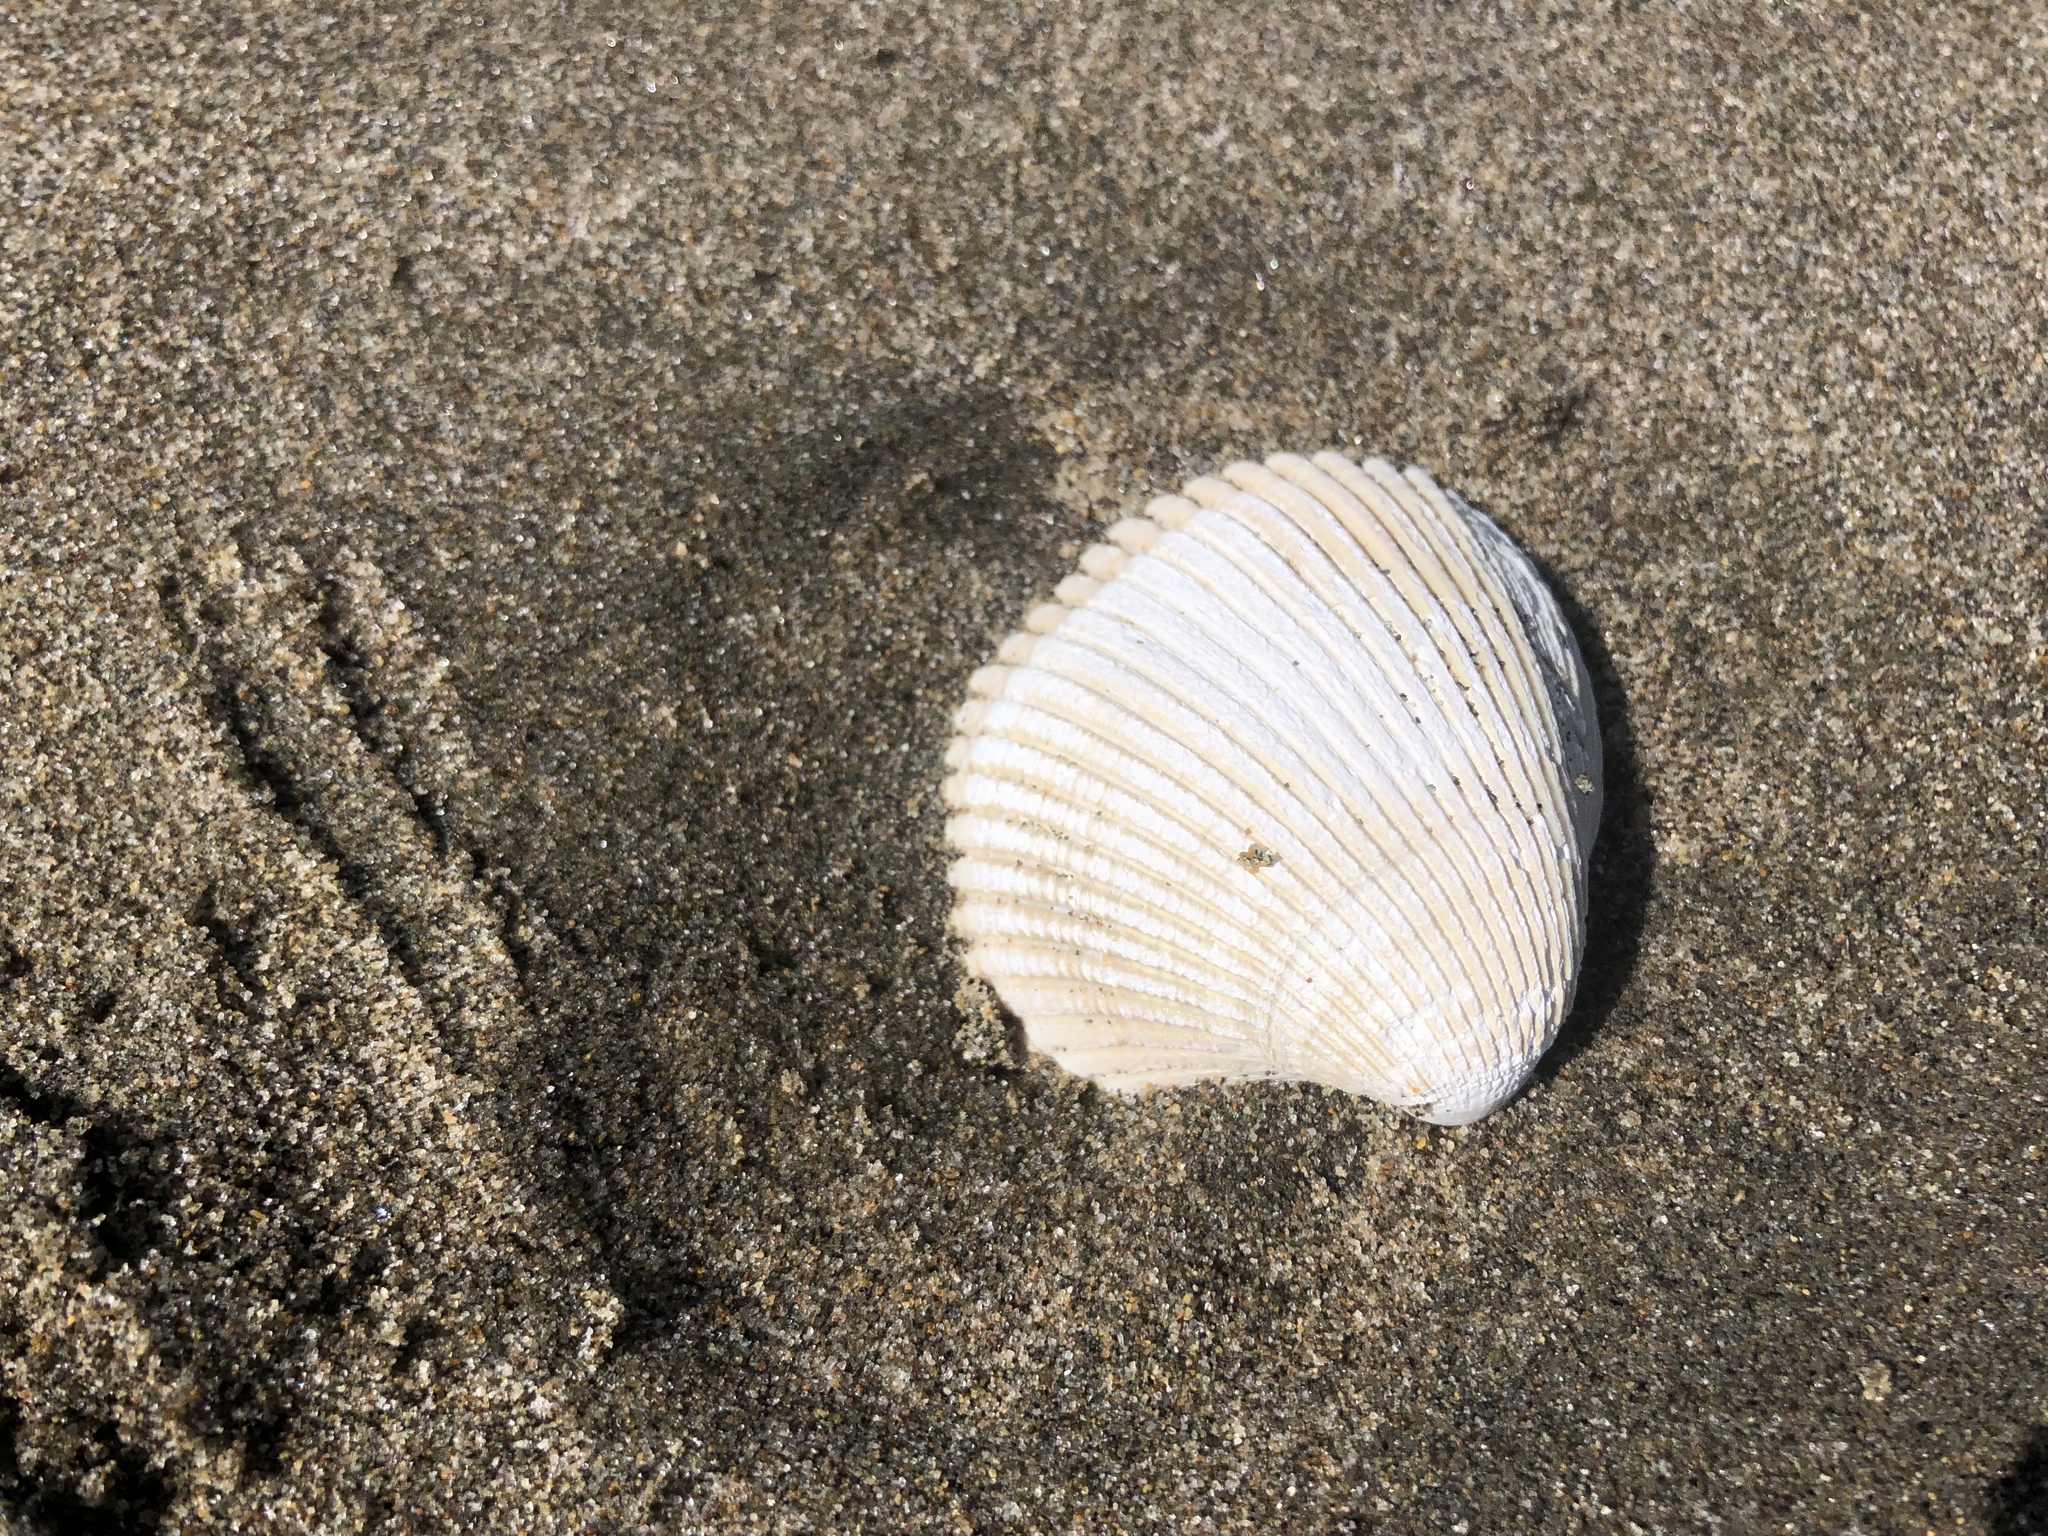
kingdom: Animalia
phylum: Mollusca
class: Bivalvia
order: Cardiida
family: Cardiidae
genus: Clinocardium
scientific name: Clinocardium nuttallii
